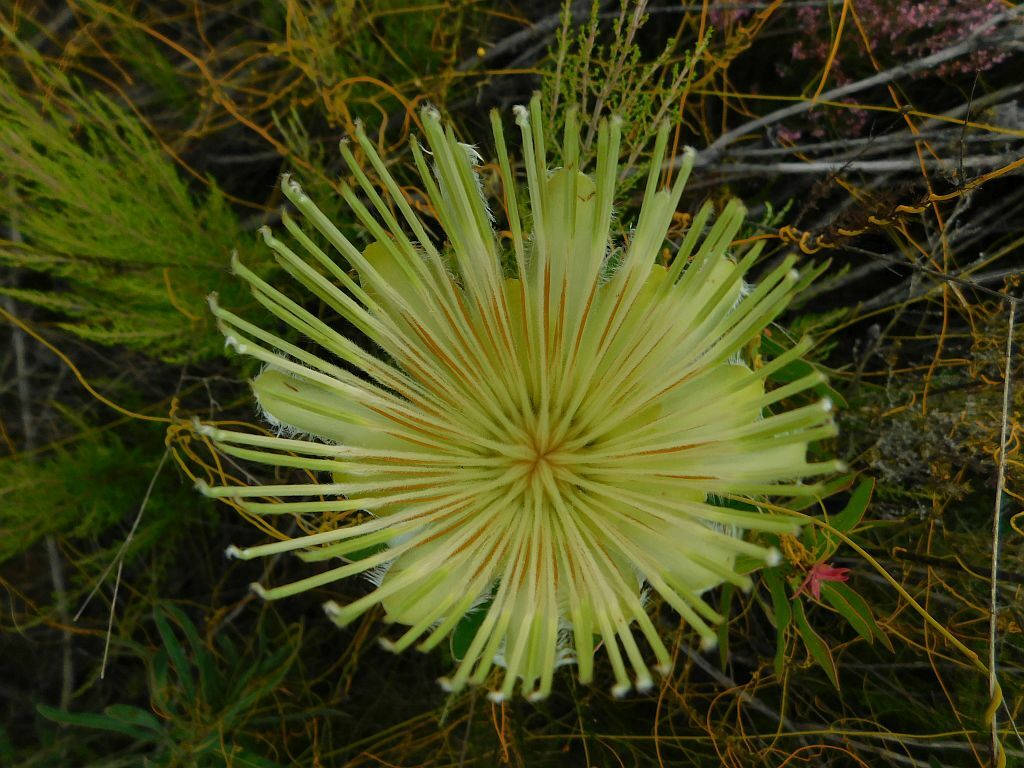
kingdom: Plantae
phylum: Tracheophyta
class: Magnoliopsida
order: Proteales
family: Proteaceae
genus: Protea
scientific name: Protea aurea
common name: Shuttlecock sugarbush
